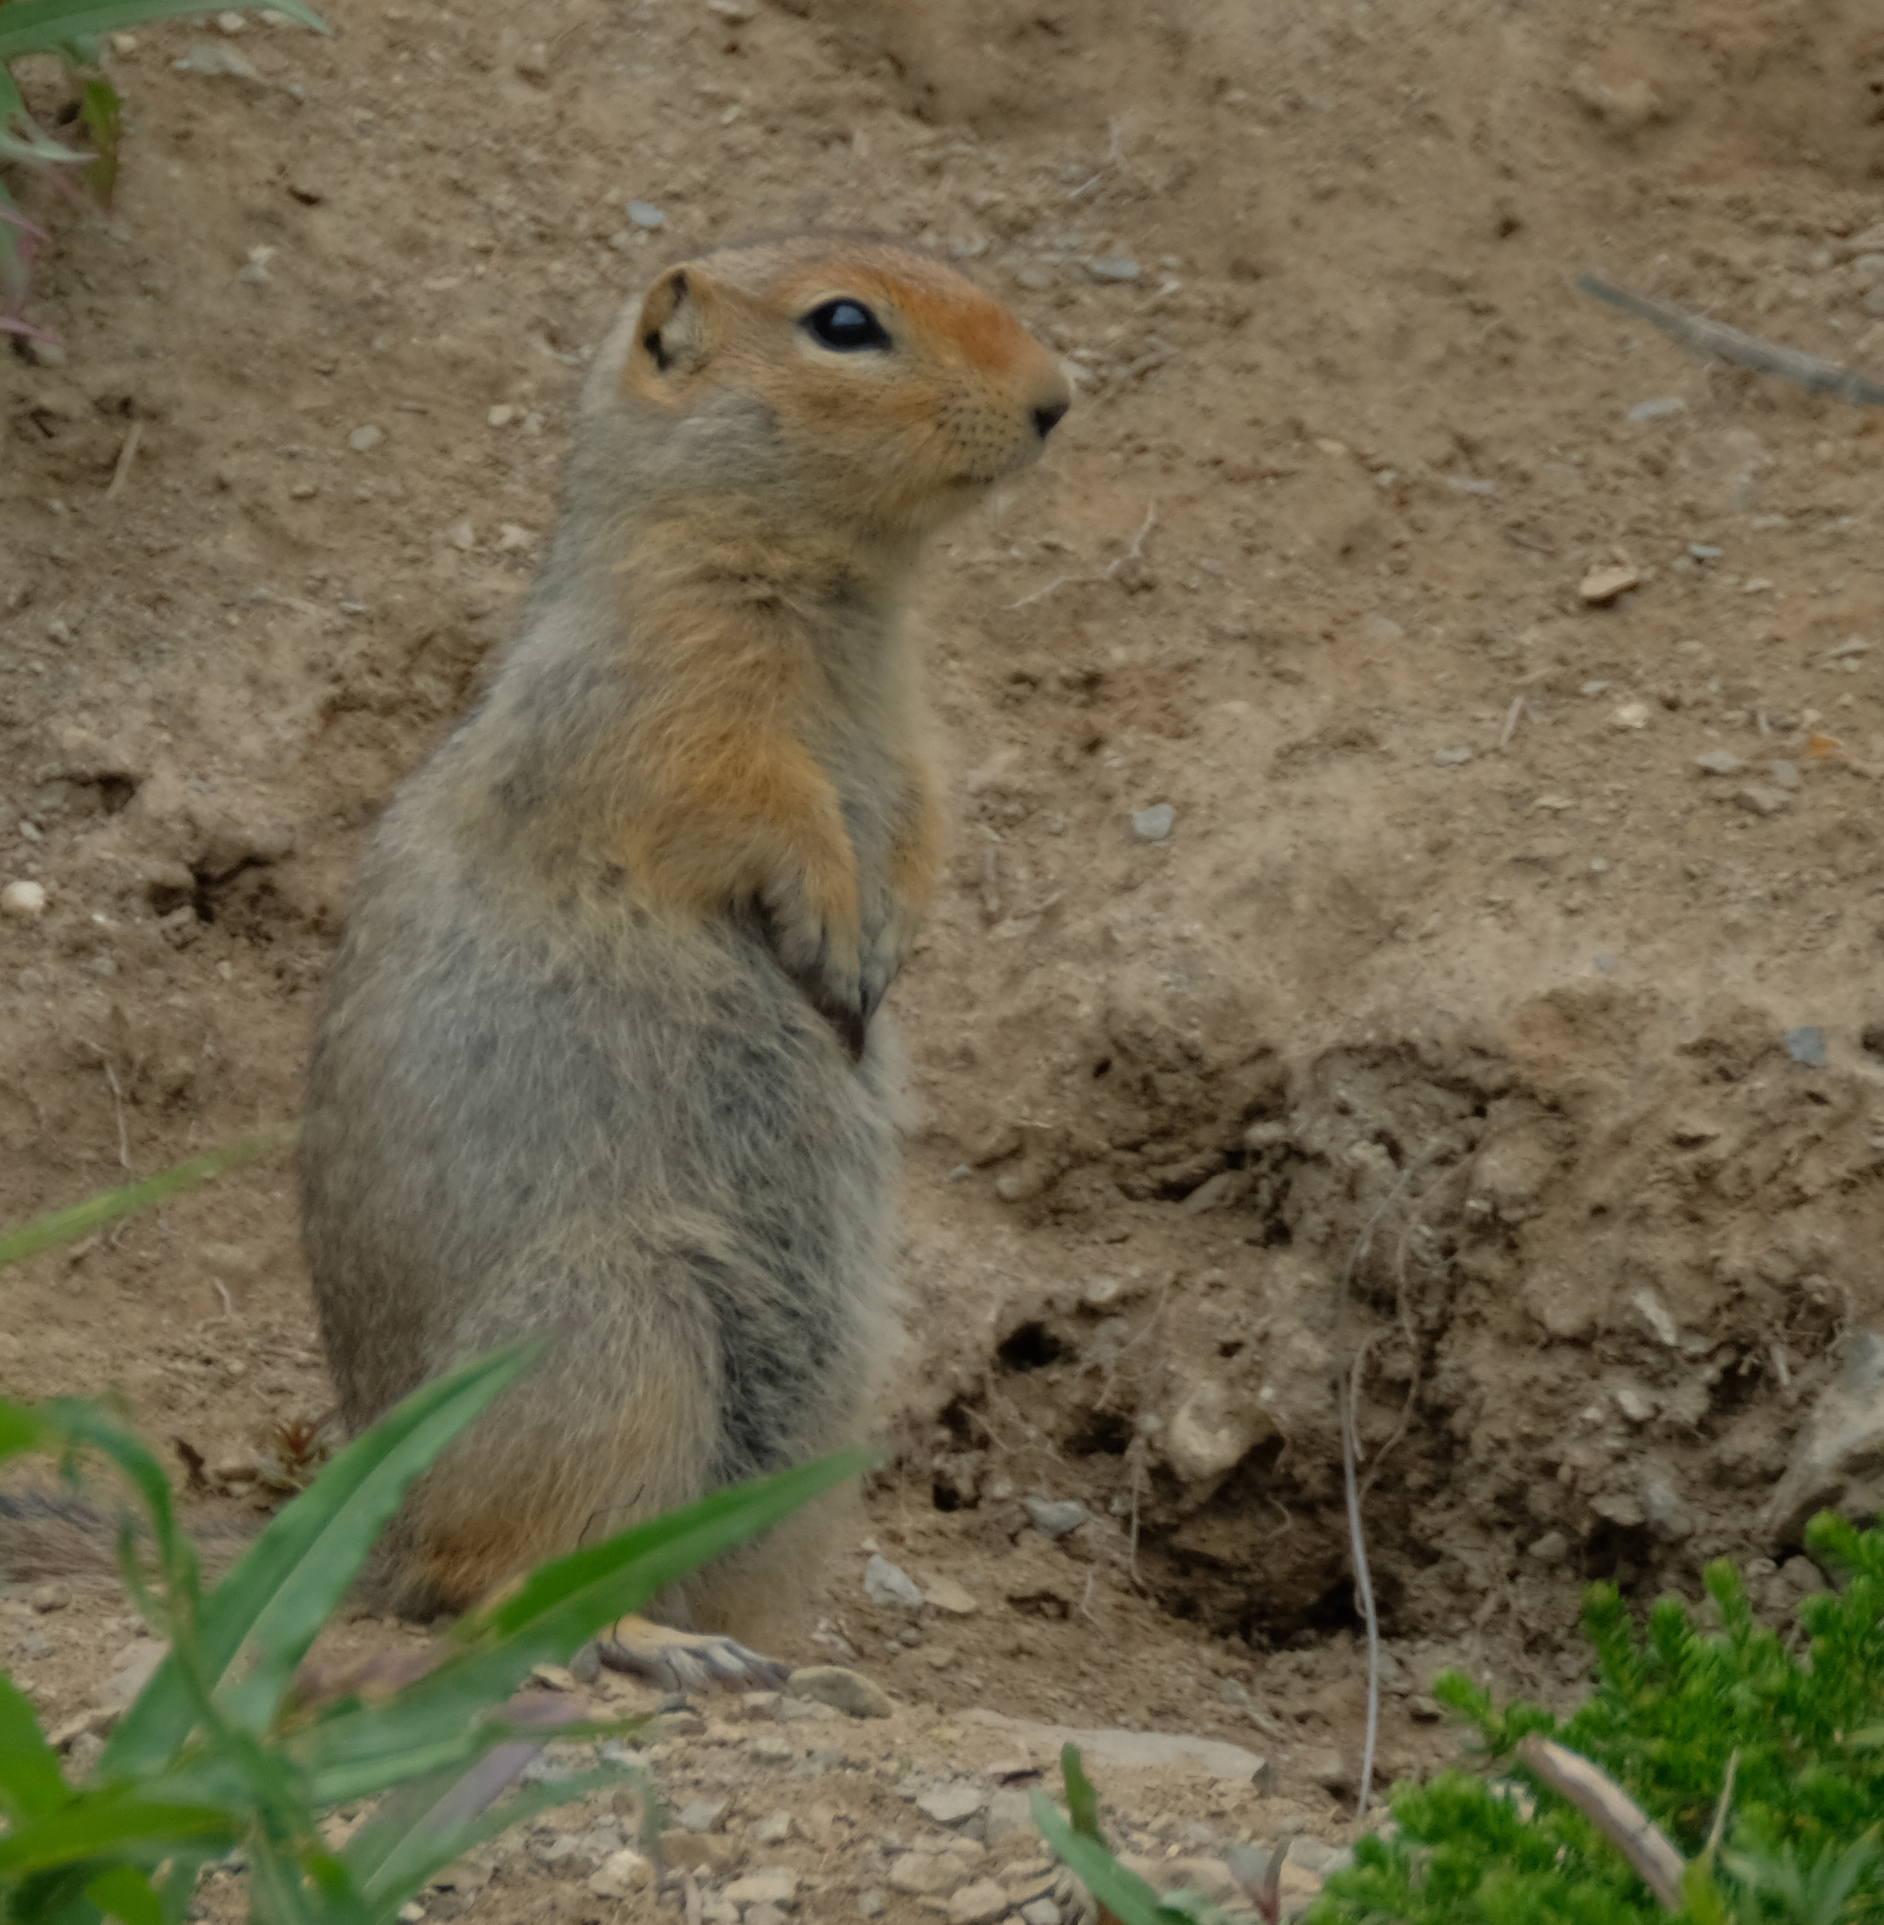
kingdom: Animalia
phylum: Chordata
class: Mammalia
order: Rodentia
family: Sciuridae
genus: Urocitellus
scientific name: Urocitellus parryii
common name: Arctic ground squirrel
